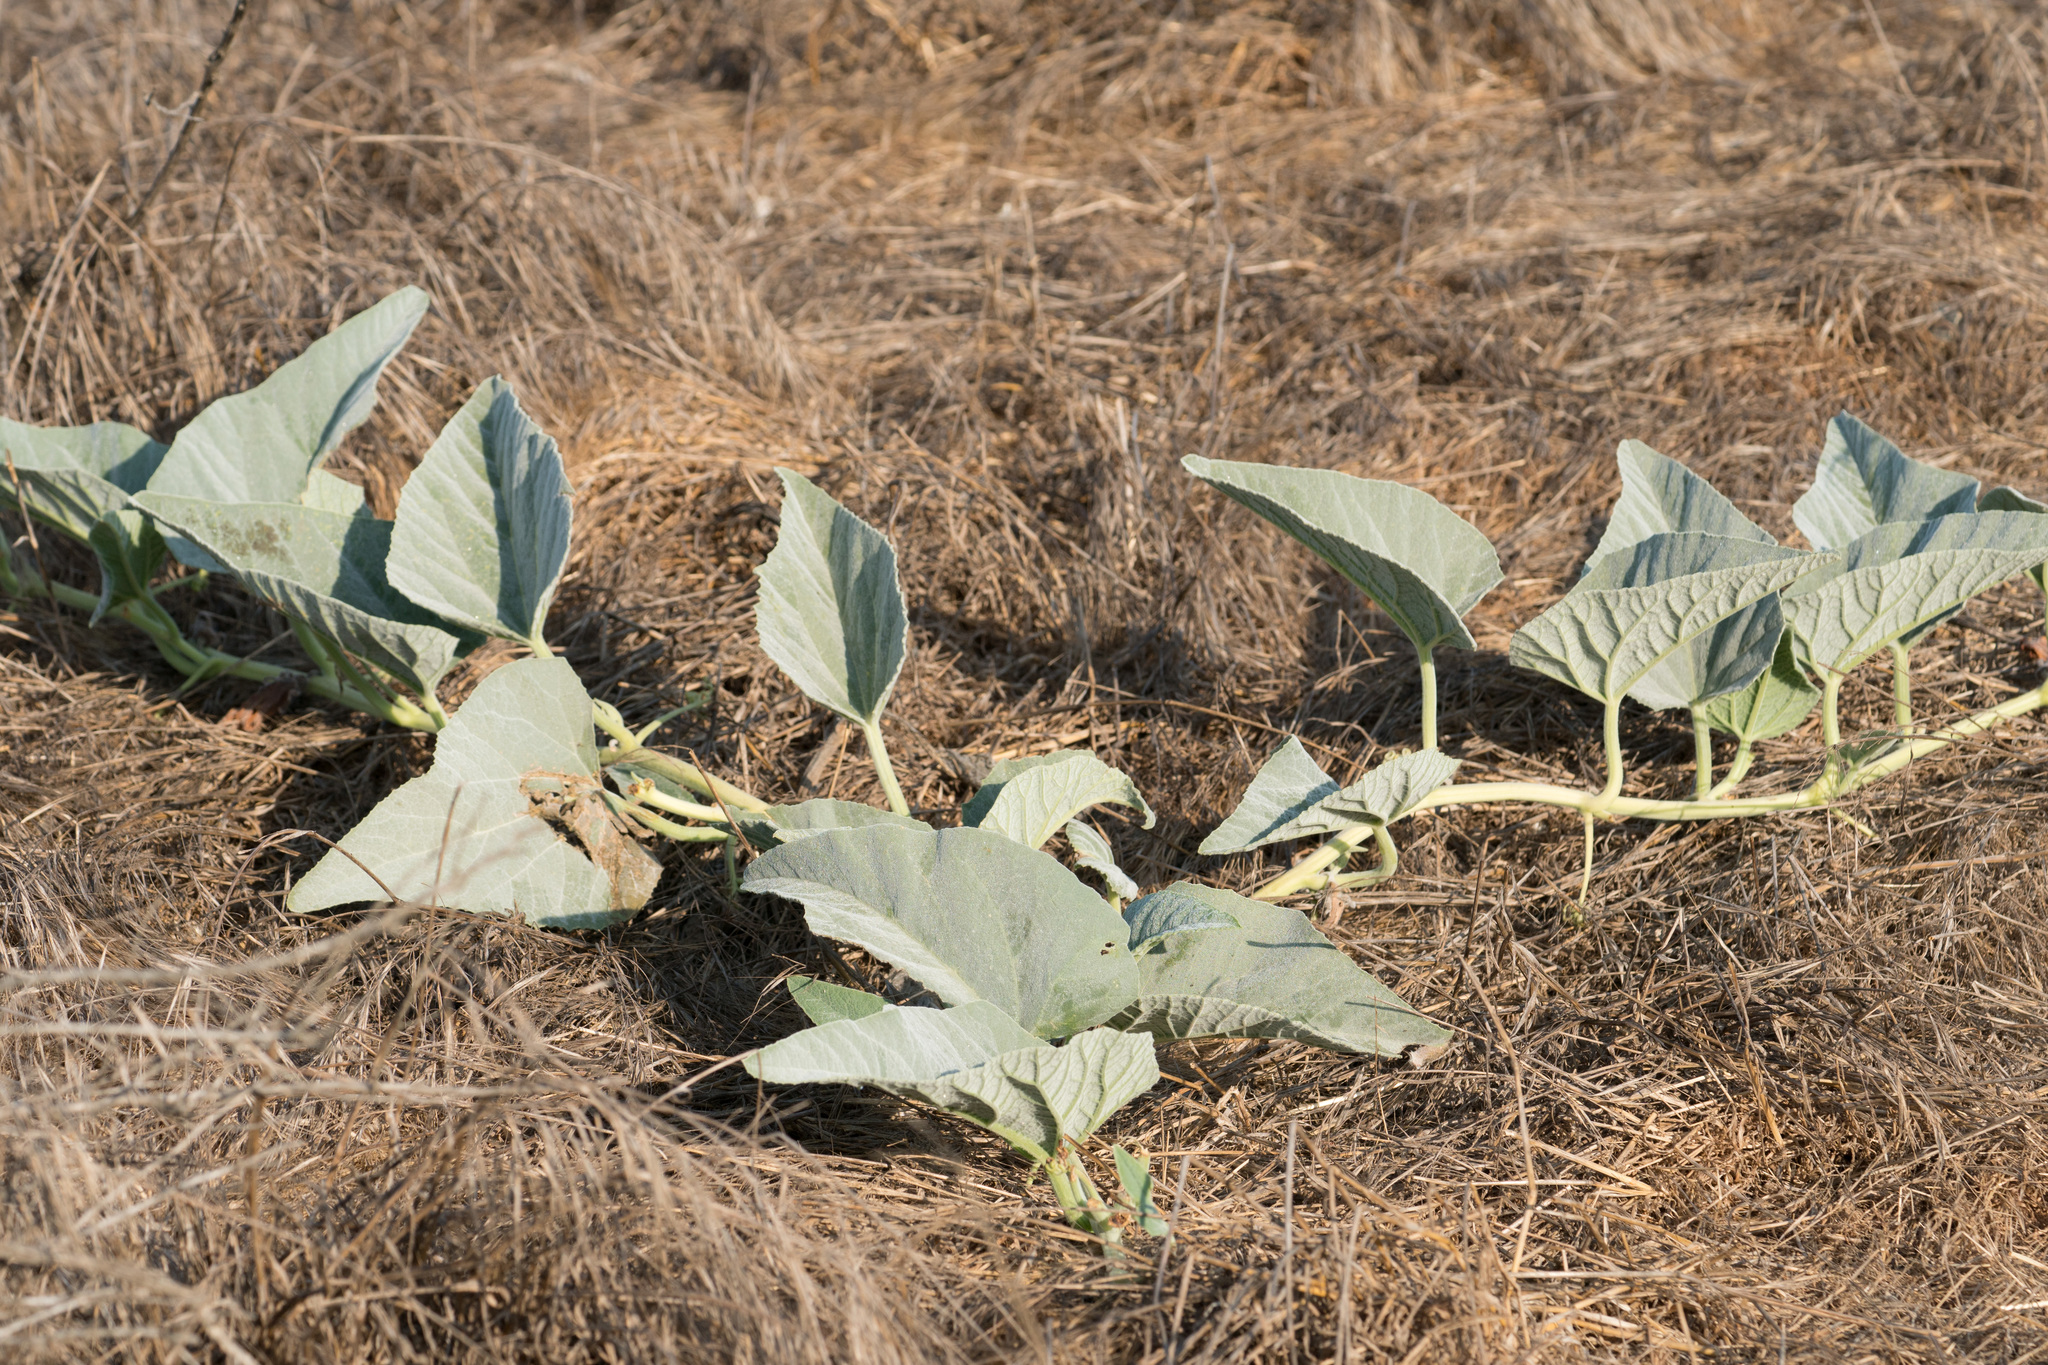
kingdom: Plantae
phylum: Tracheophyta
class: Magnoliopsida
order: Cucurbitales
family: Cucurbitaceae
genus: Cucurbita
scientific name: Cucurbita foetidissima
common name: Buffalo gourd
